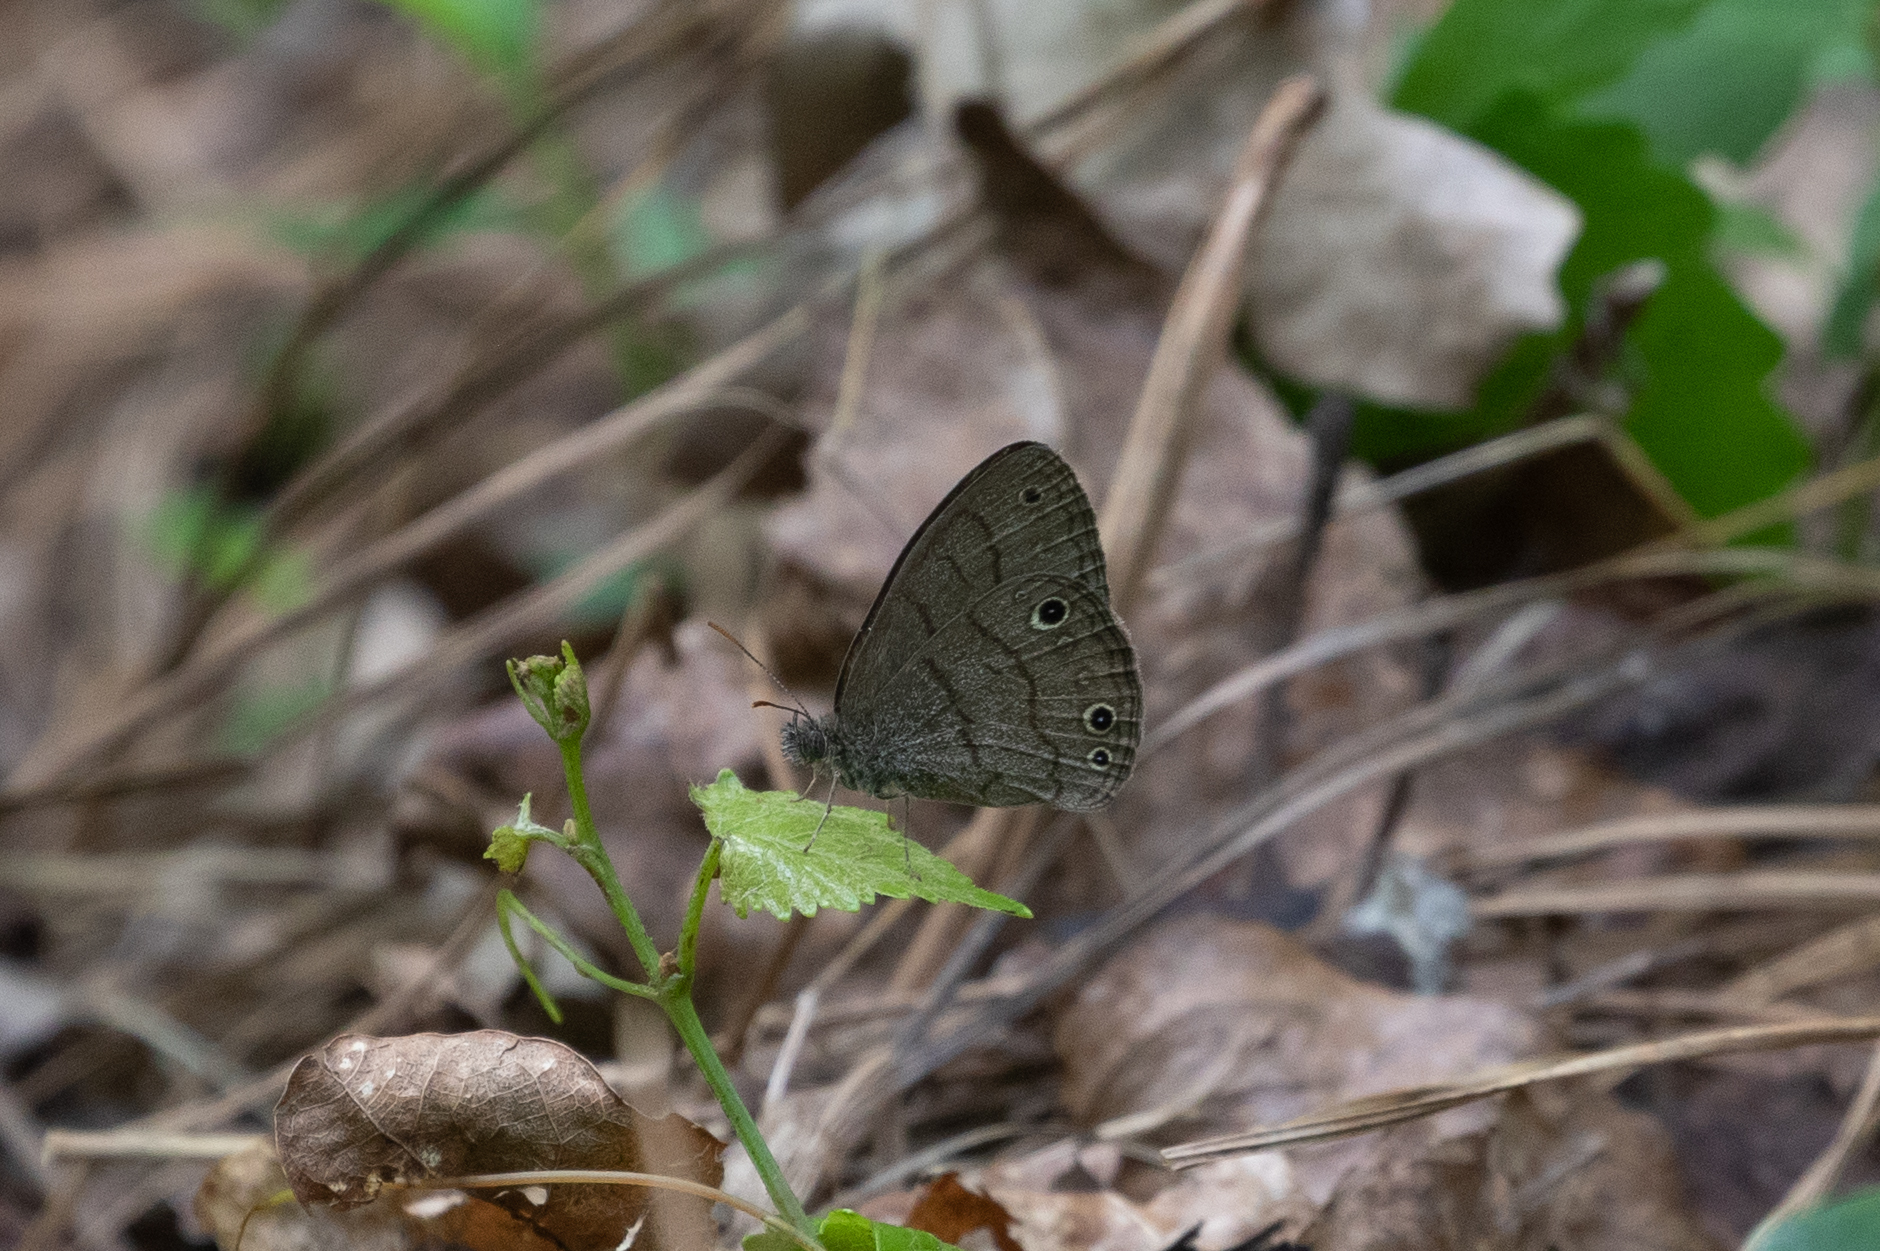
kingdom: Animalia
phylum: Arthropoda
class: Insecta
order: Lepidoptera
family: Nymphalidae
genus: Hermeuptychia
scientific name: Hermeuptychia hermes
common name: Hermes satyr
